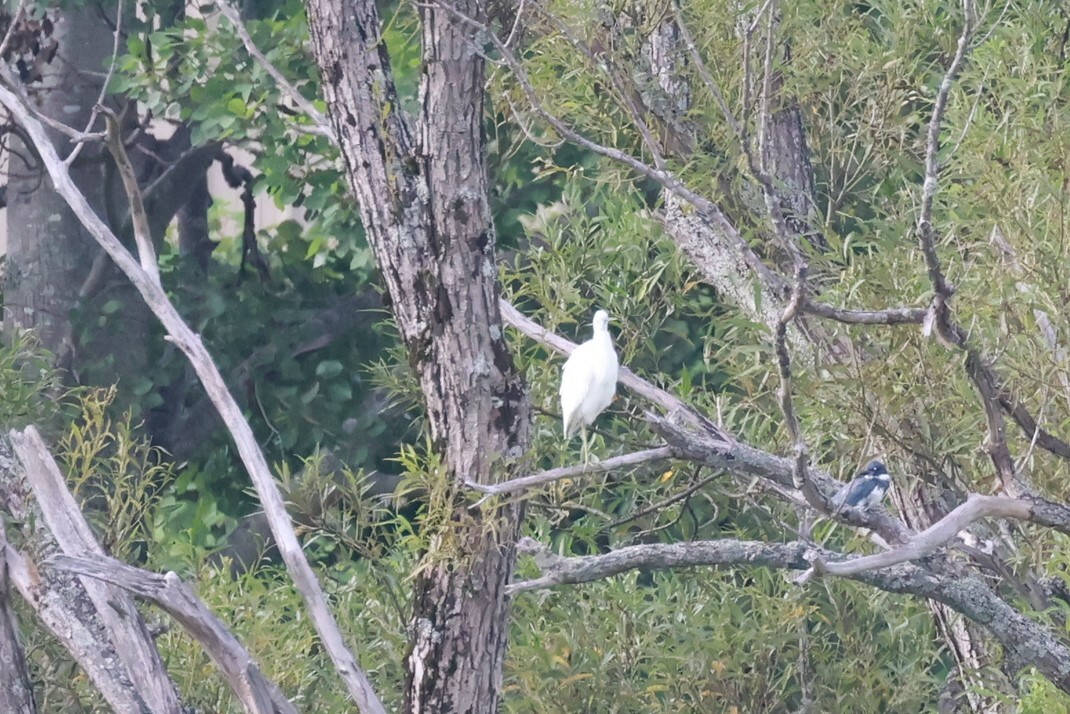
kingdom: Animalia
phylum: Chordata
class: Aves
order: Pelecaniformes
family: Ardeidae
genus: Egretta
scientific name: Egretta caerulea
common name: Little blue heron
